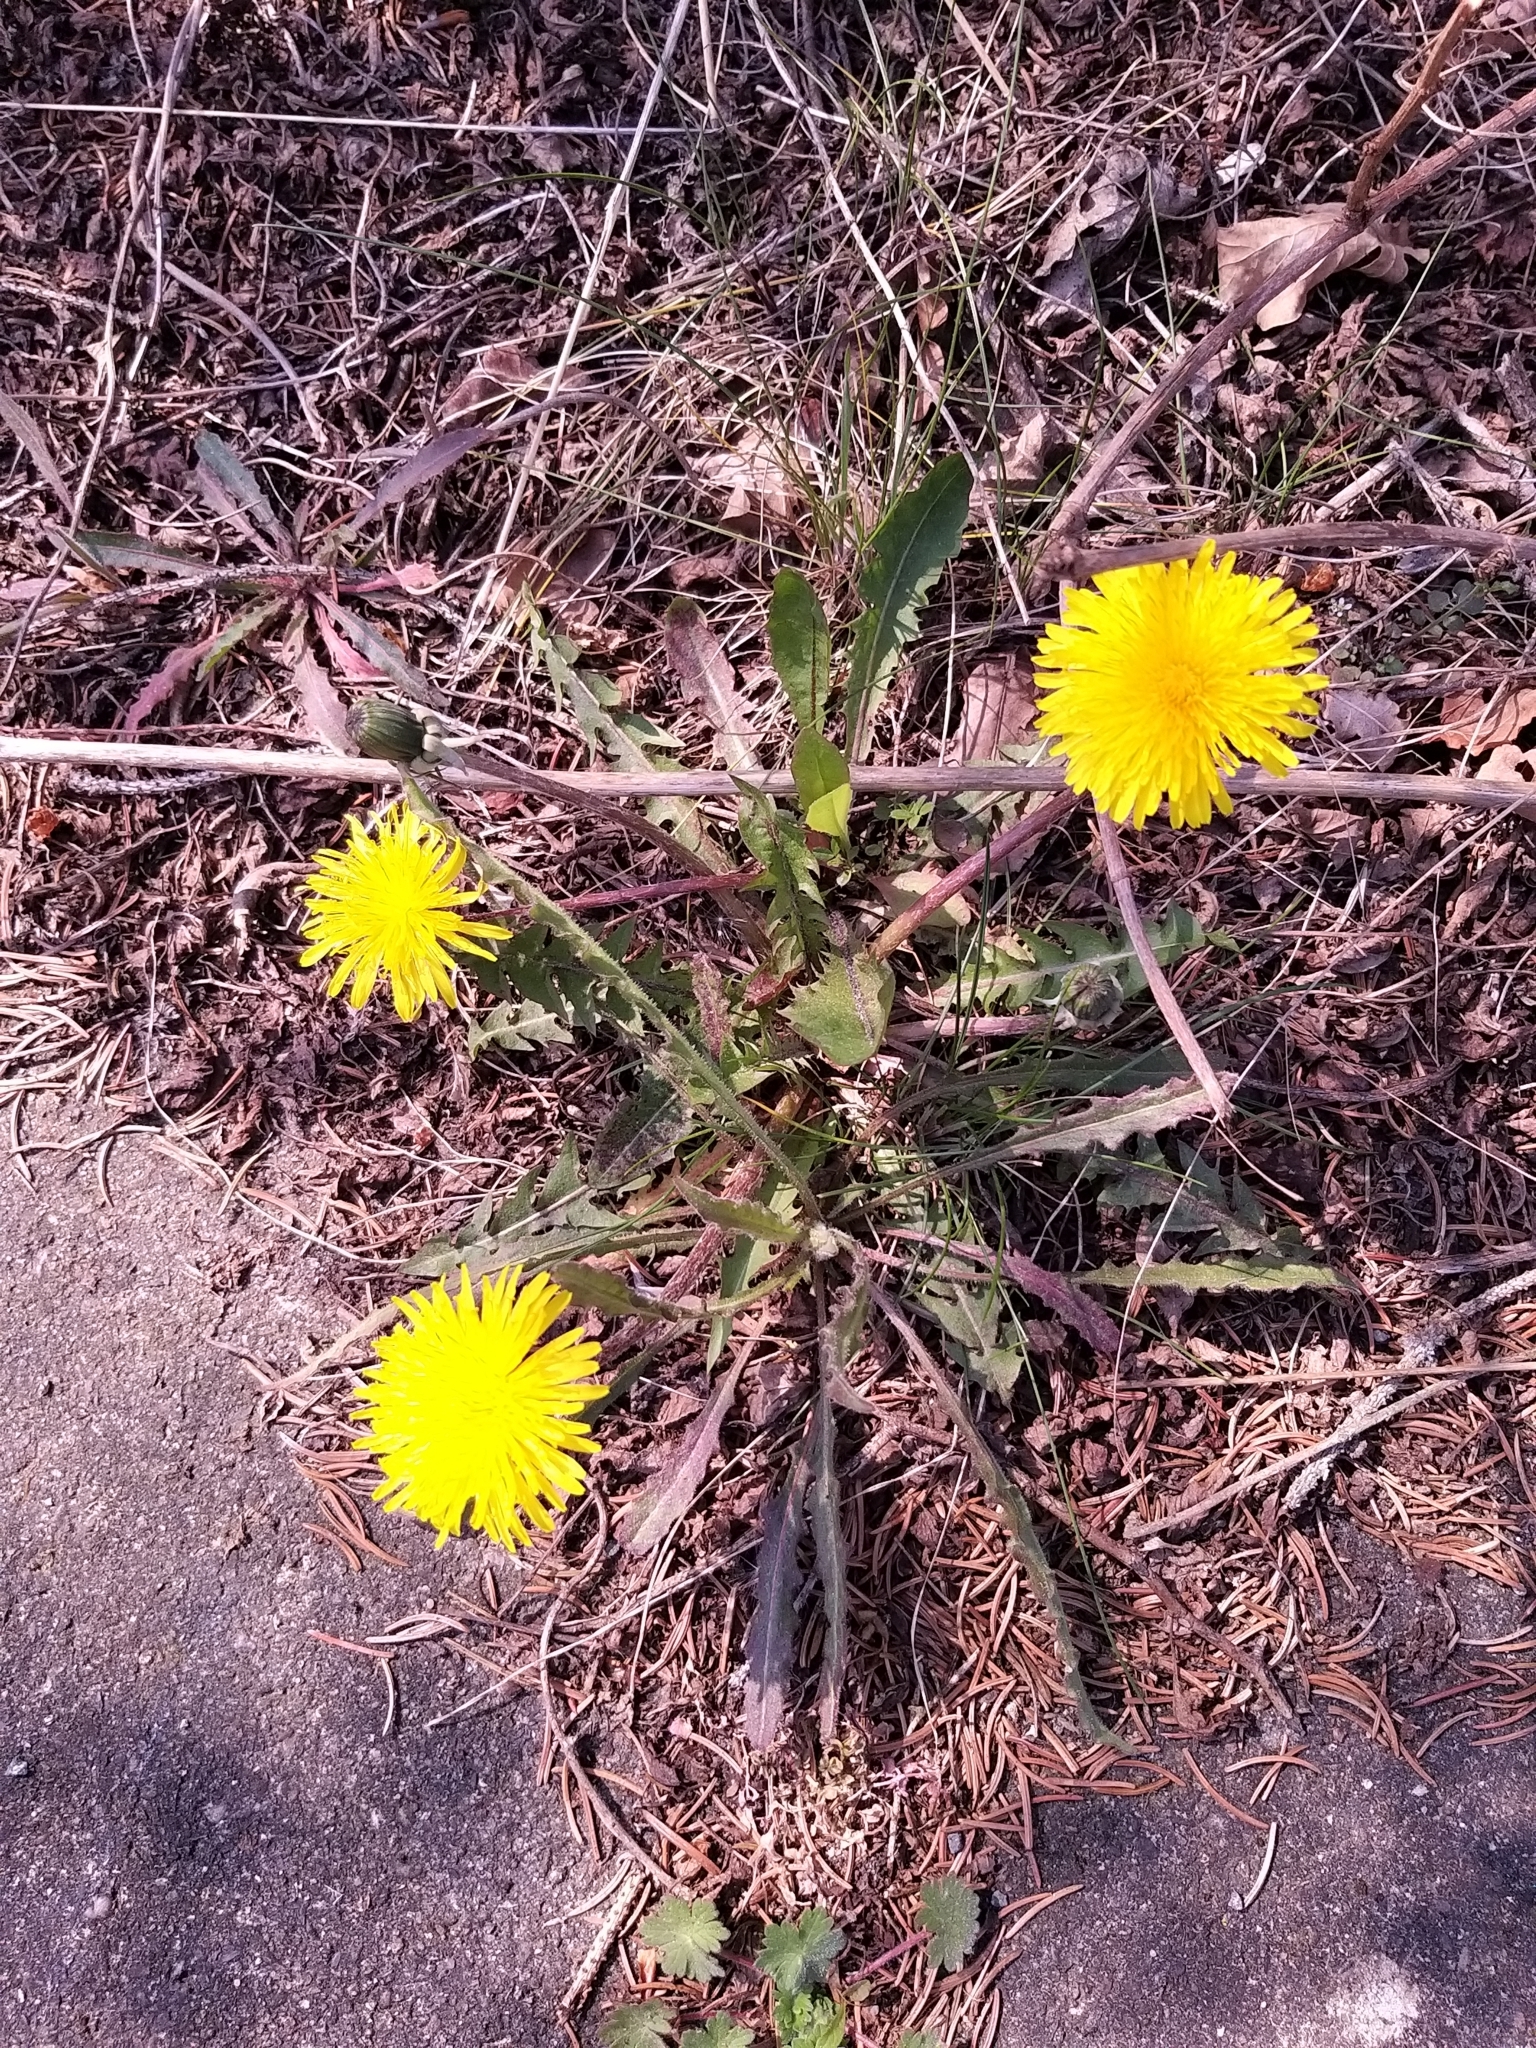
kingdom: Plantae
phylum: Tracheophyta
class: Magnoliopsida
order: Asterales
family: Asteraceae
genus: Taraxacum
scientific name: Taraxacum officinale
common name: Common dandelion
